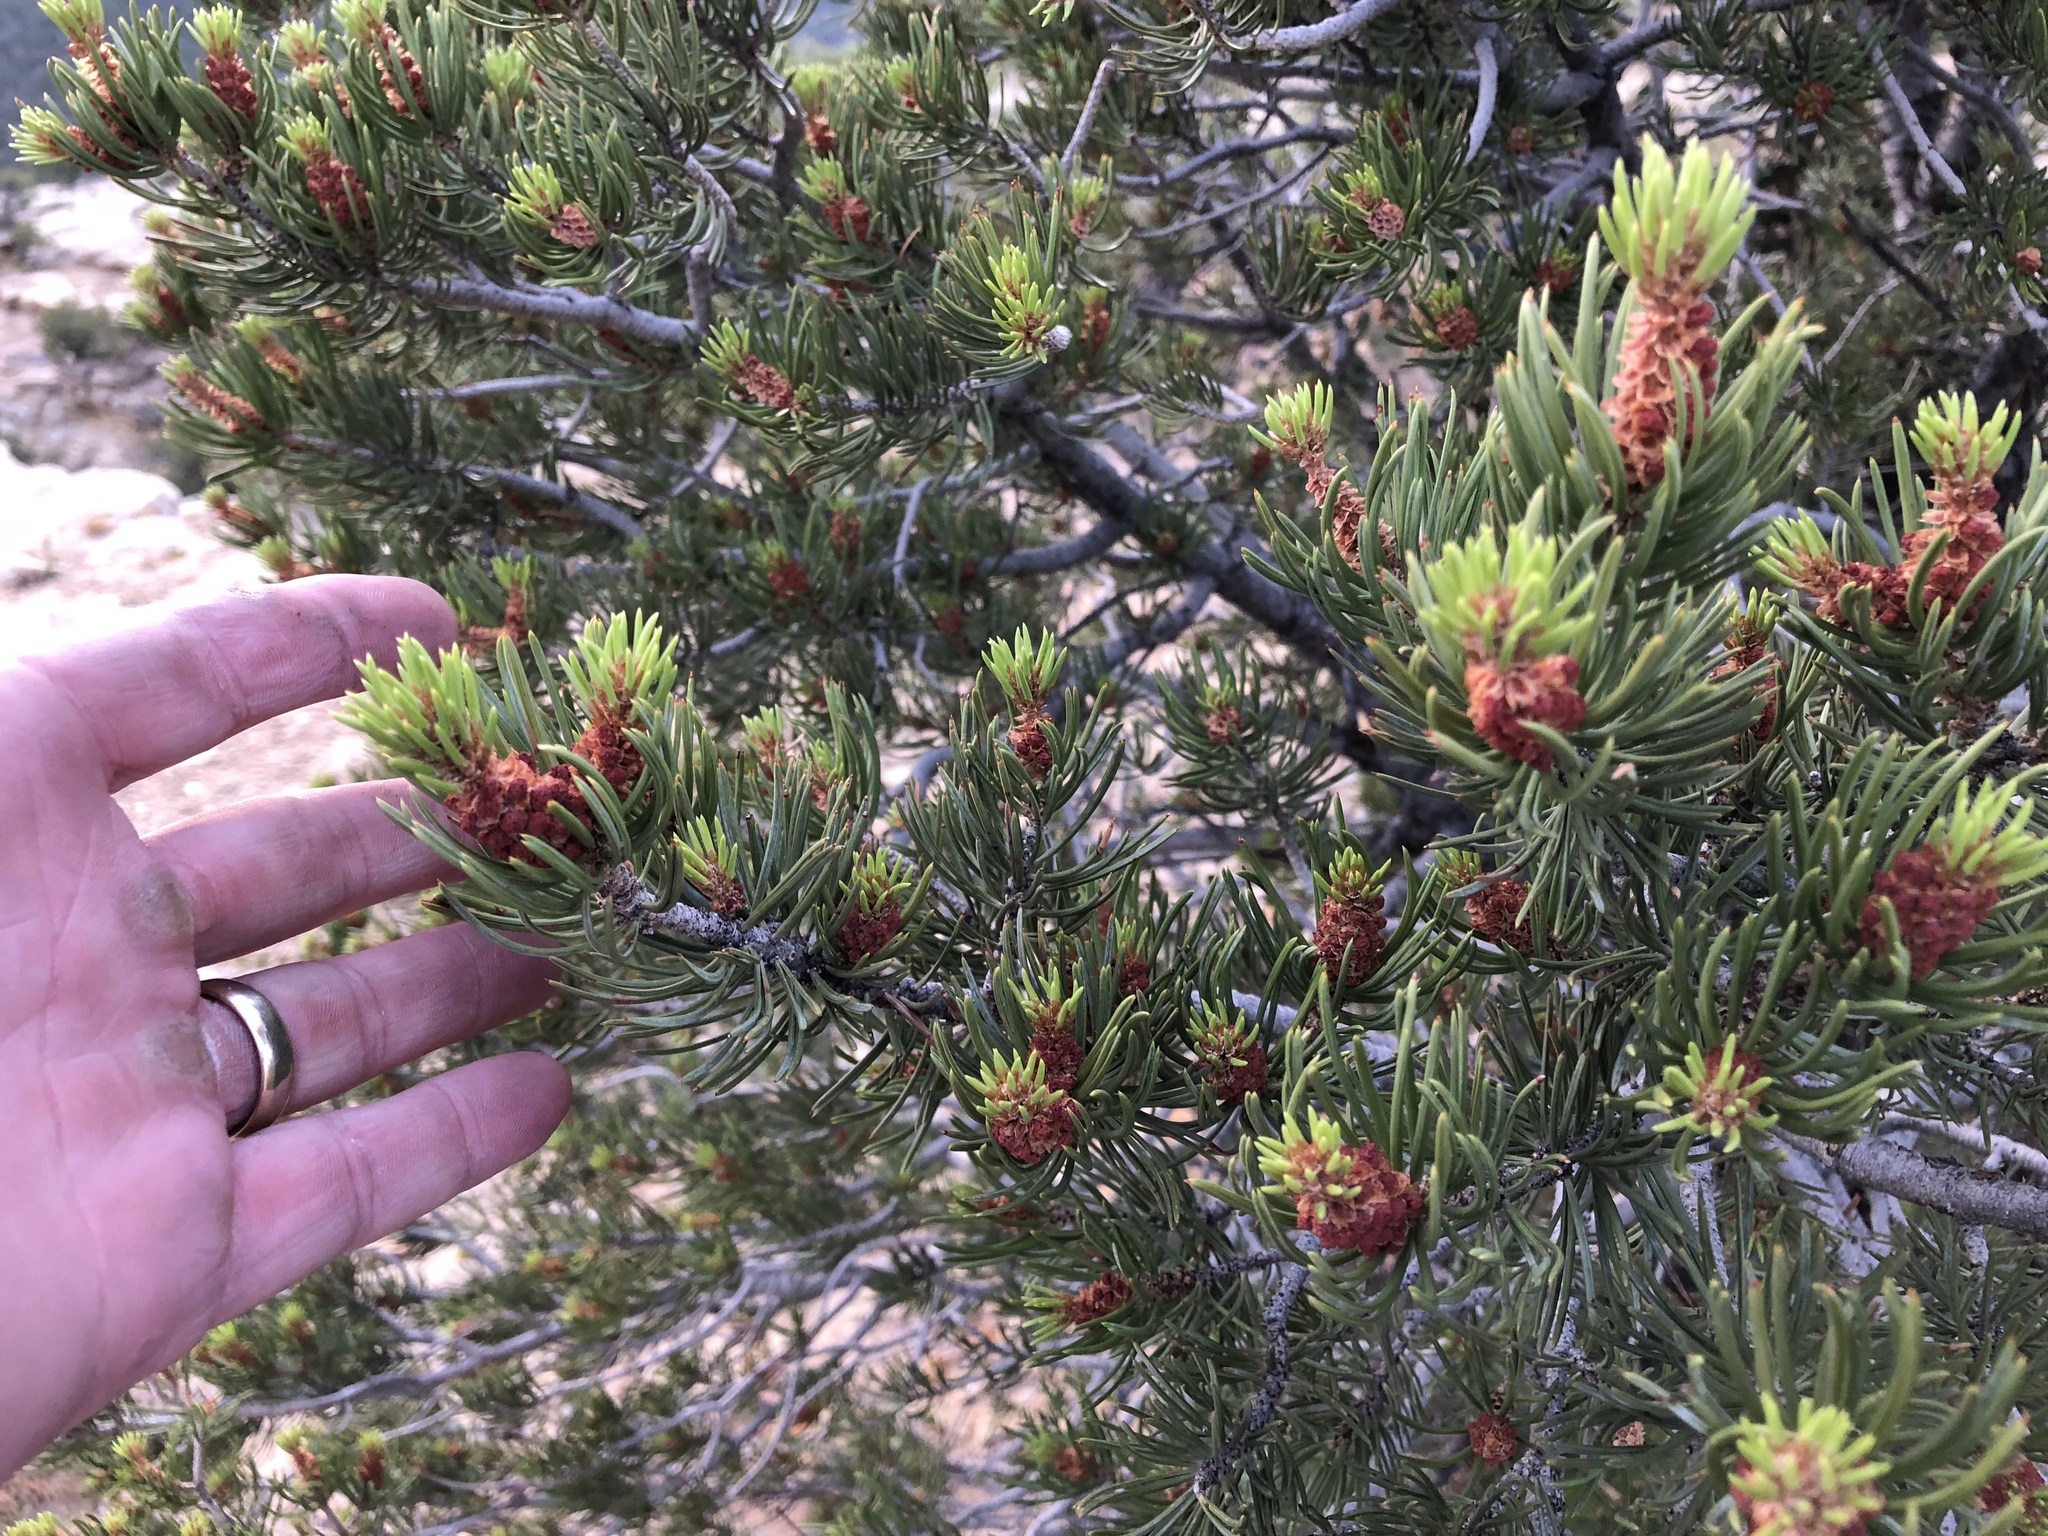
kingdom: Plantae
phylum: Tracheophyta
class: Pinopsida
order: Pinales
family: Pinaceae
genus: Pinus
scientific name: Pinus edulis
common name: Colorado pinyon
